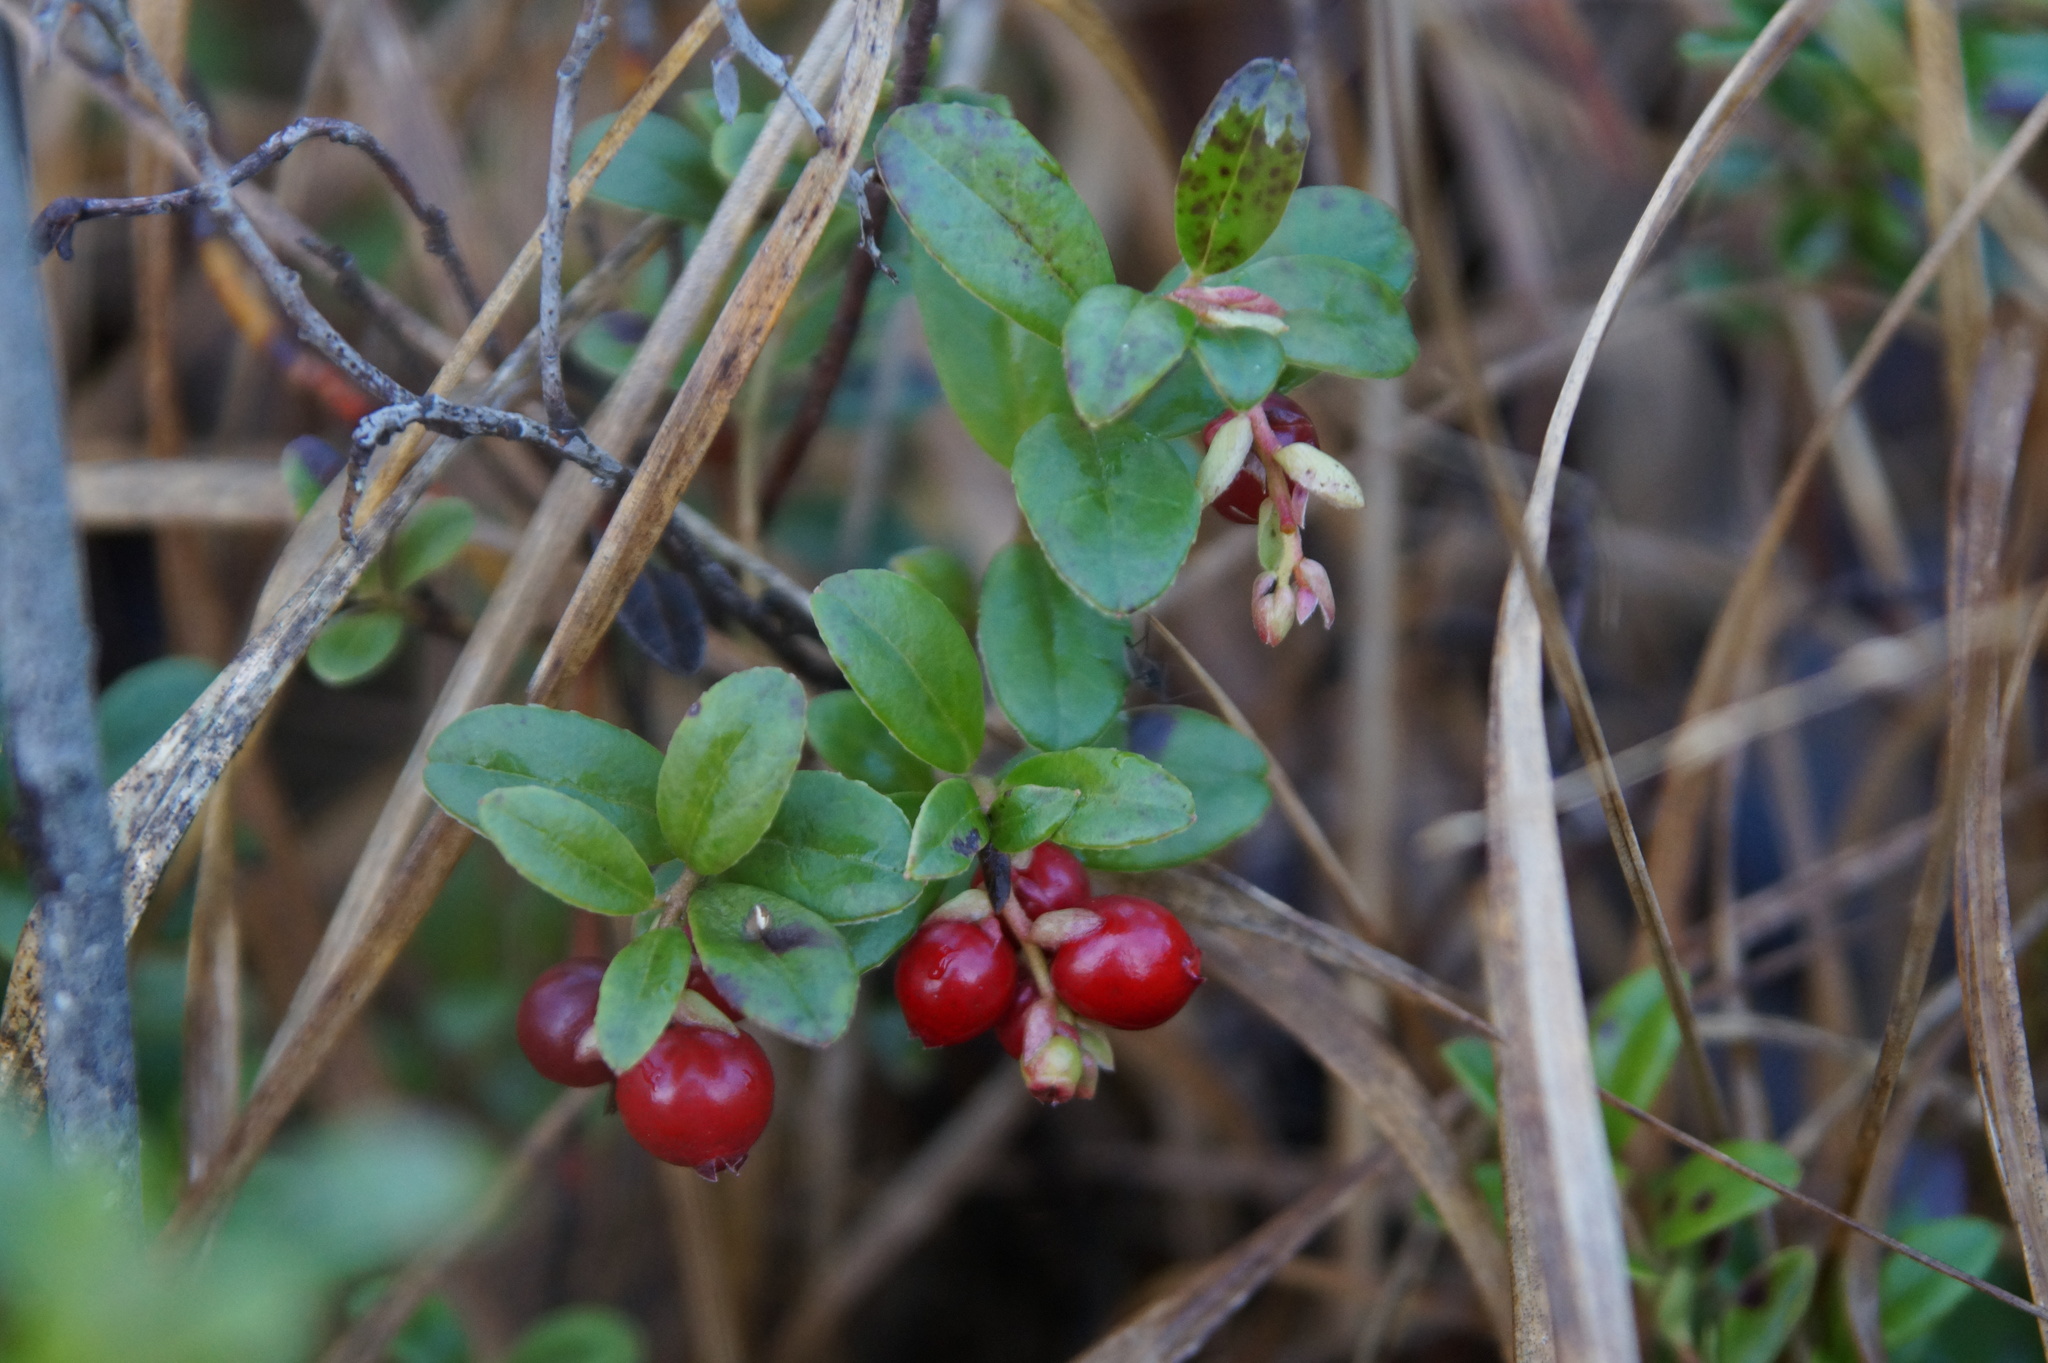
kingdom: Plantae
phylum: Tracheophyta
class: Magnoliopsida
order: Ericales
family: Ericaceae
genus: Vaccinium
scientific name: Vaccinium vitis-idaea
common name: Cowberry
